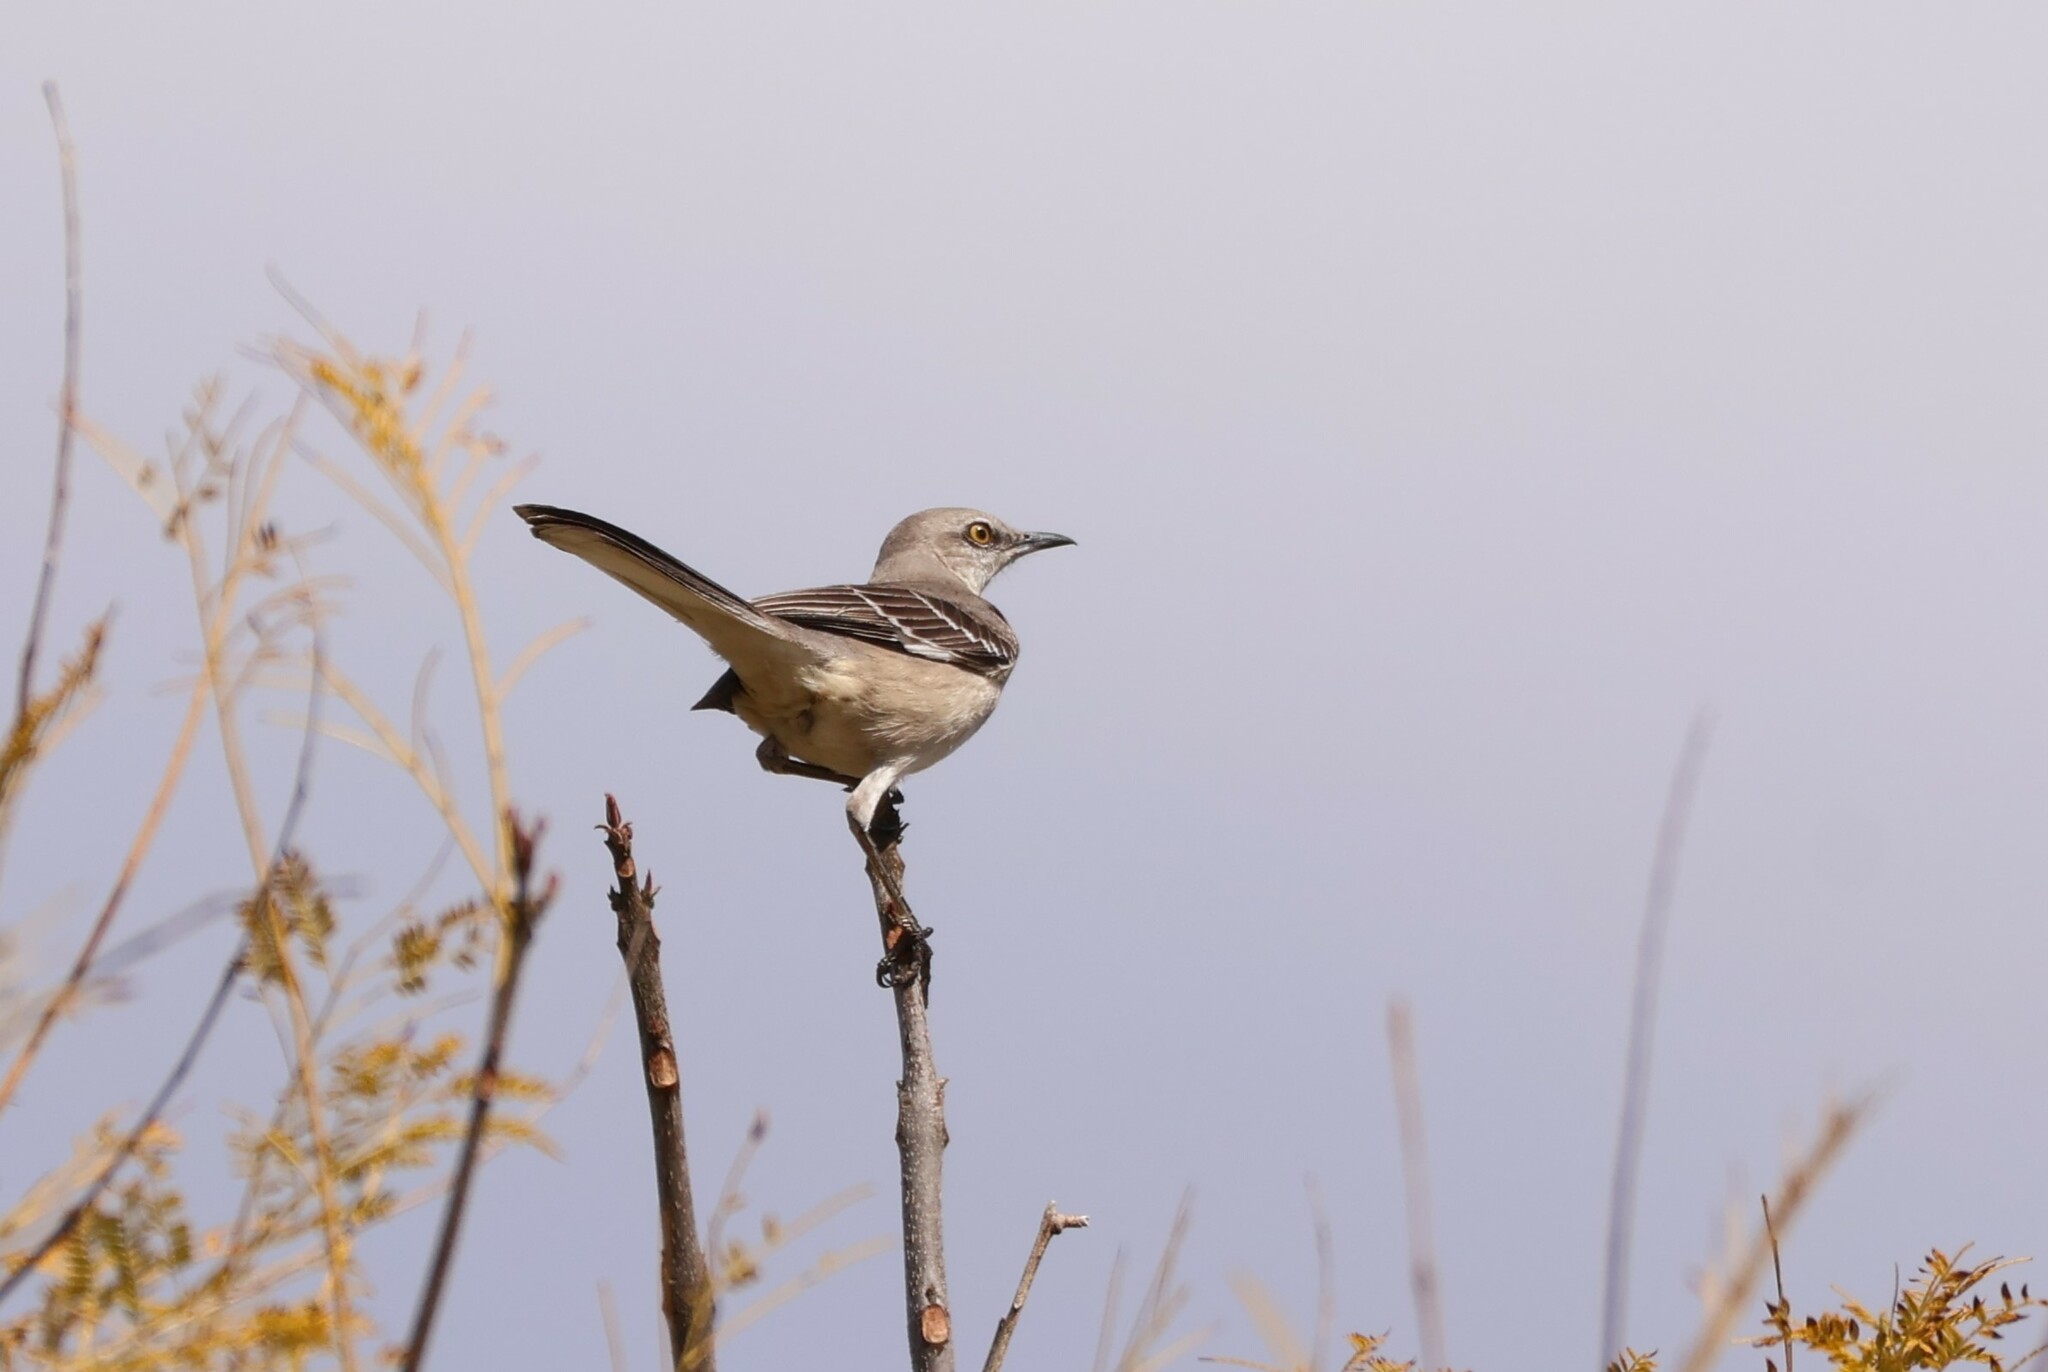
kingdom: Animalia
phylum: Chordata
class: Aves
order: Passeriformes
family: Mimidae
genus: Mimus
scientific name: Mimus polyglottos
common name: Northern mockingbird
